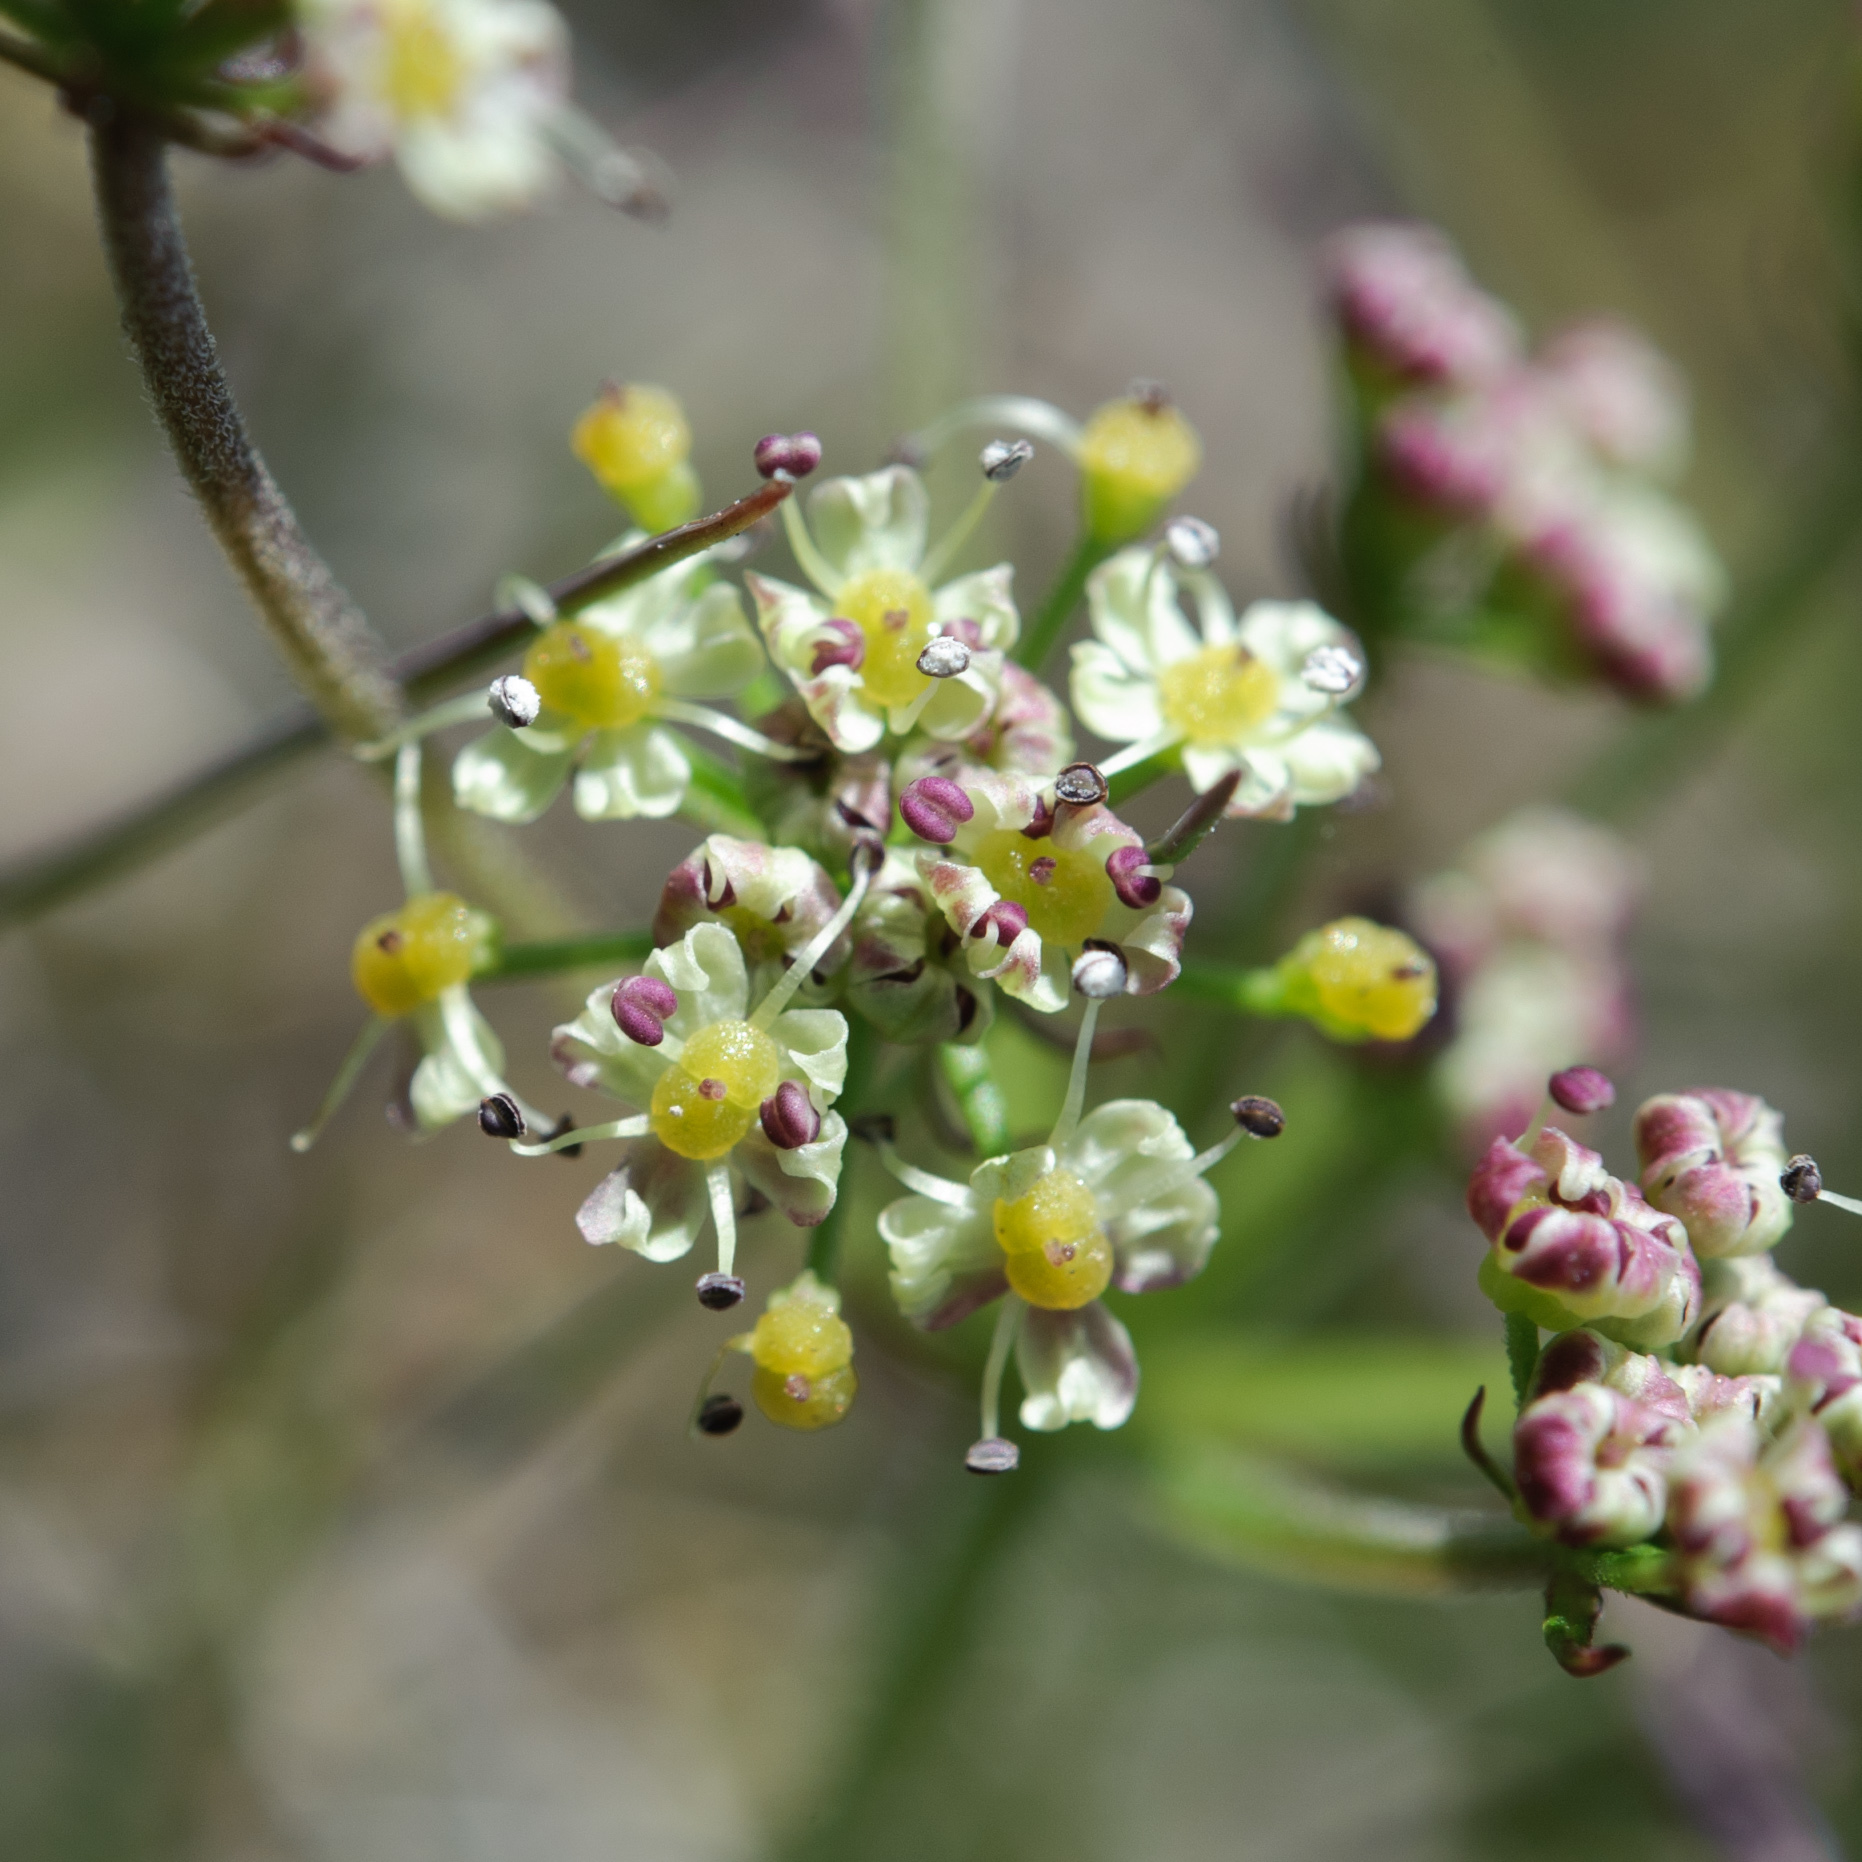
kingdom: Plantae
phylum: Tracheophyta
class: Magnoliopsida
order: Apiales
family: Apiaceae
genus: Pimpinella
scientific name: Pimpinella niitakayamensis
